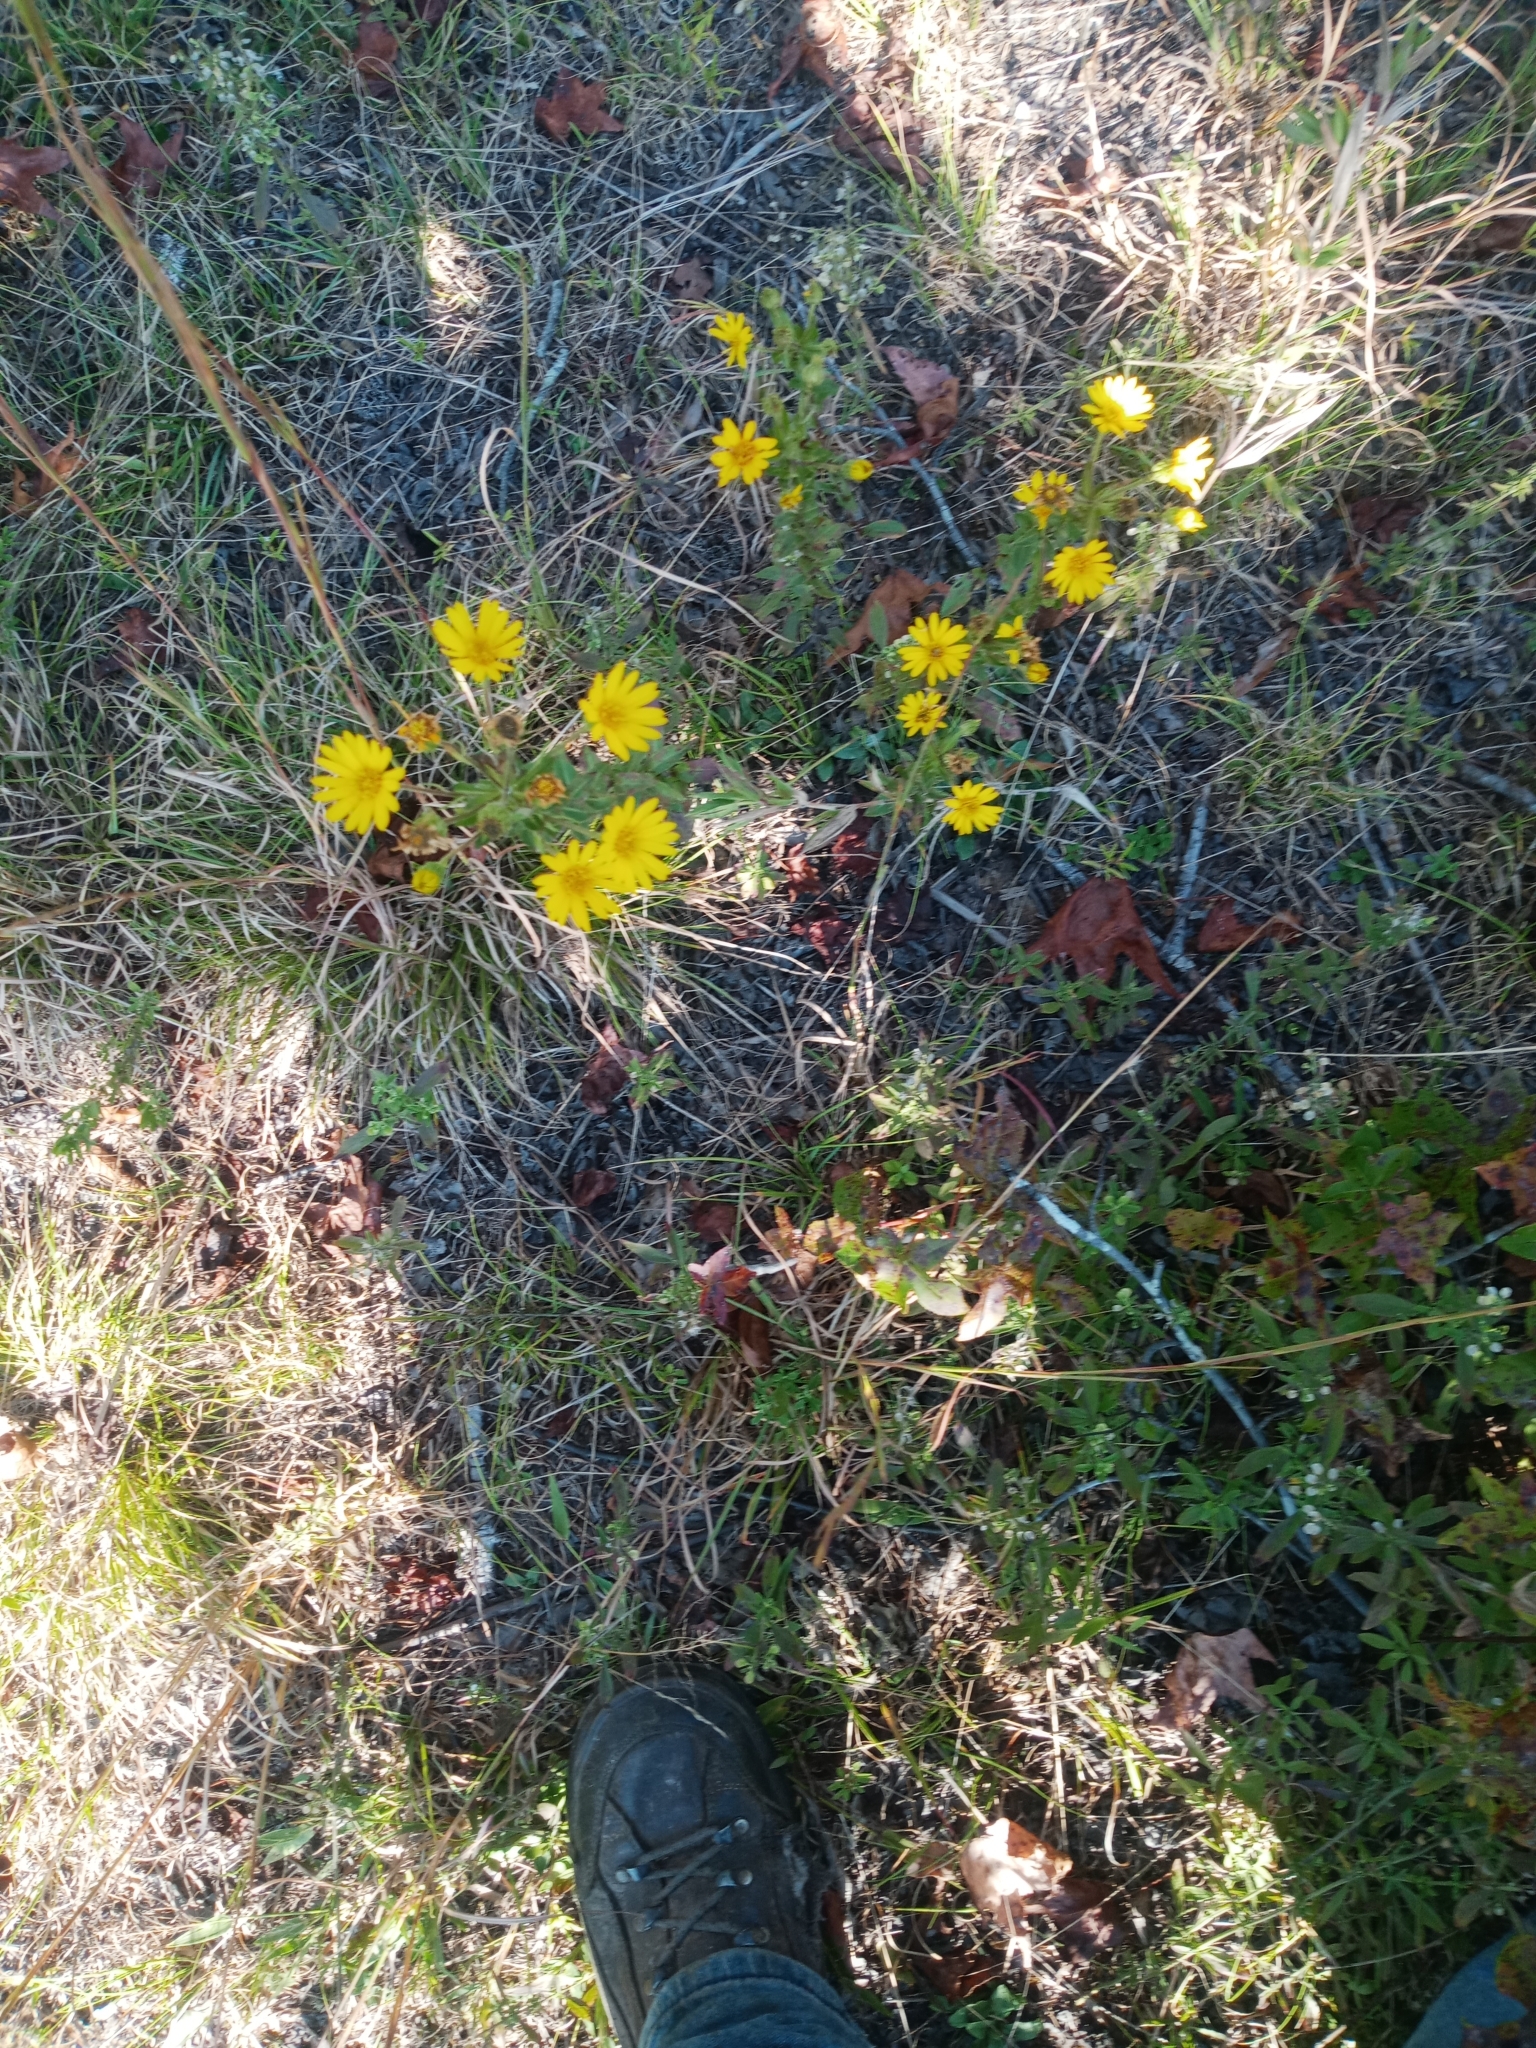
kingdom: Plantae
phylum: Tracheophyta
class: Magnoliopsida
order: Asterales
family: Asteraceae
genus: Chrysopsis
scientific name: Chrysopsis mariana
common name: Maryland golden-aster
